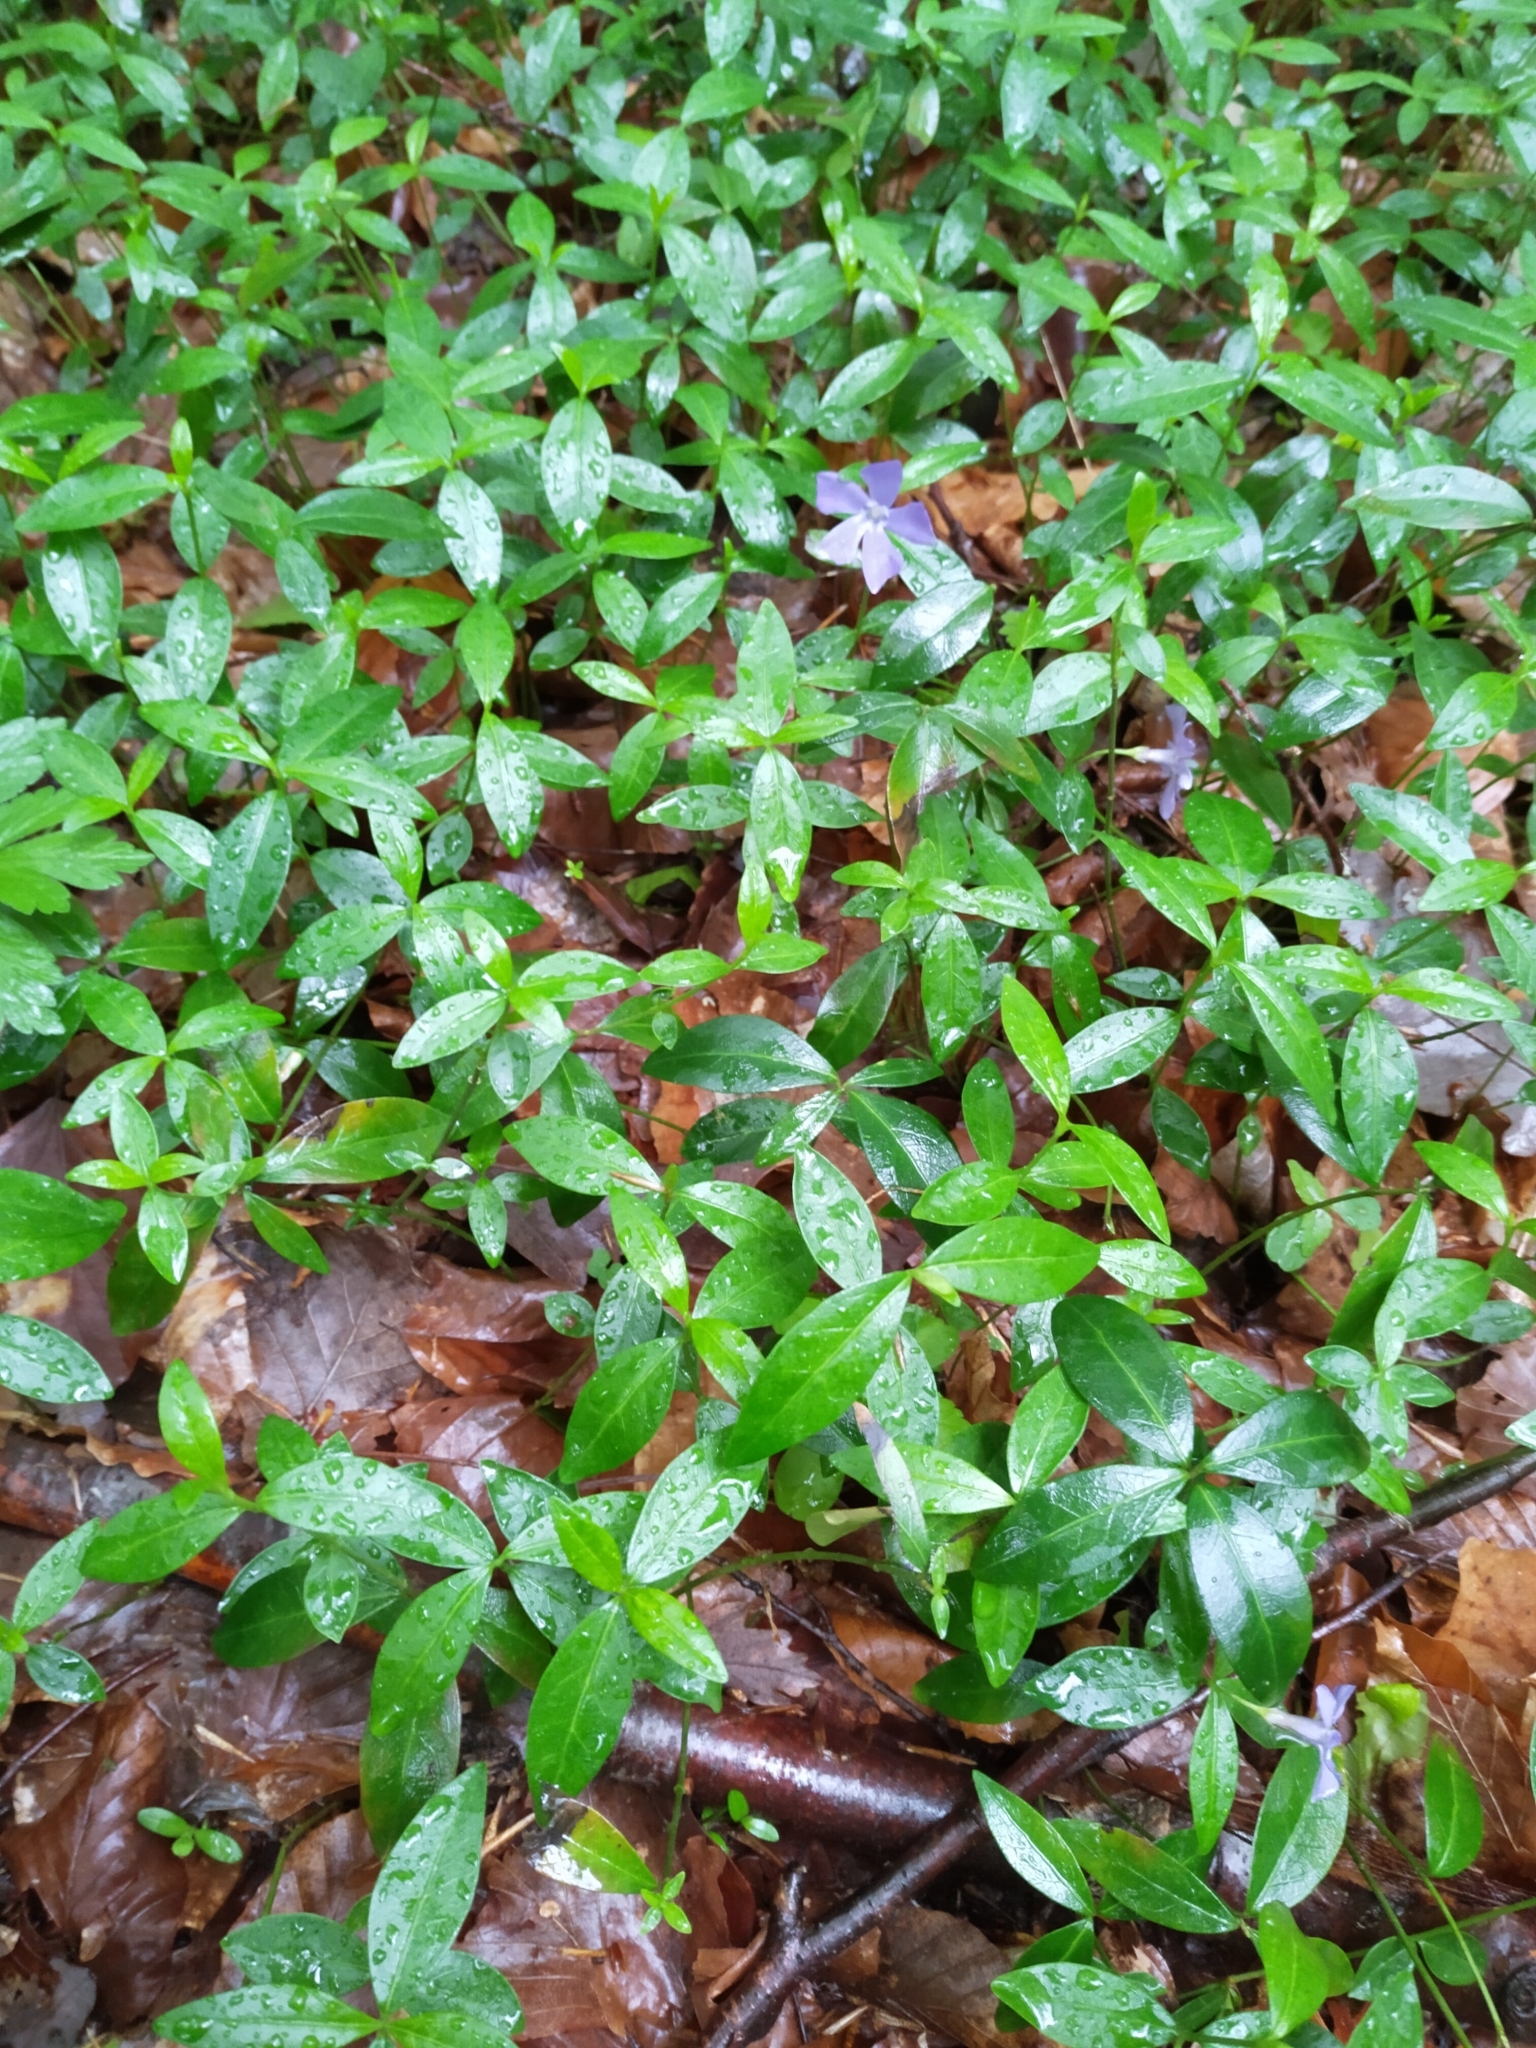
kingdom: Plantae
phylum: Tracheophyta
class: Magnoliopsida
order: Gentianales
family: Apocynaceae
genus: Vinca
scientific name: Vinca minor
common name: Lesser periwinkle
